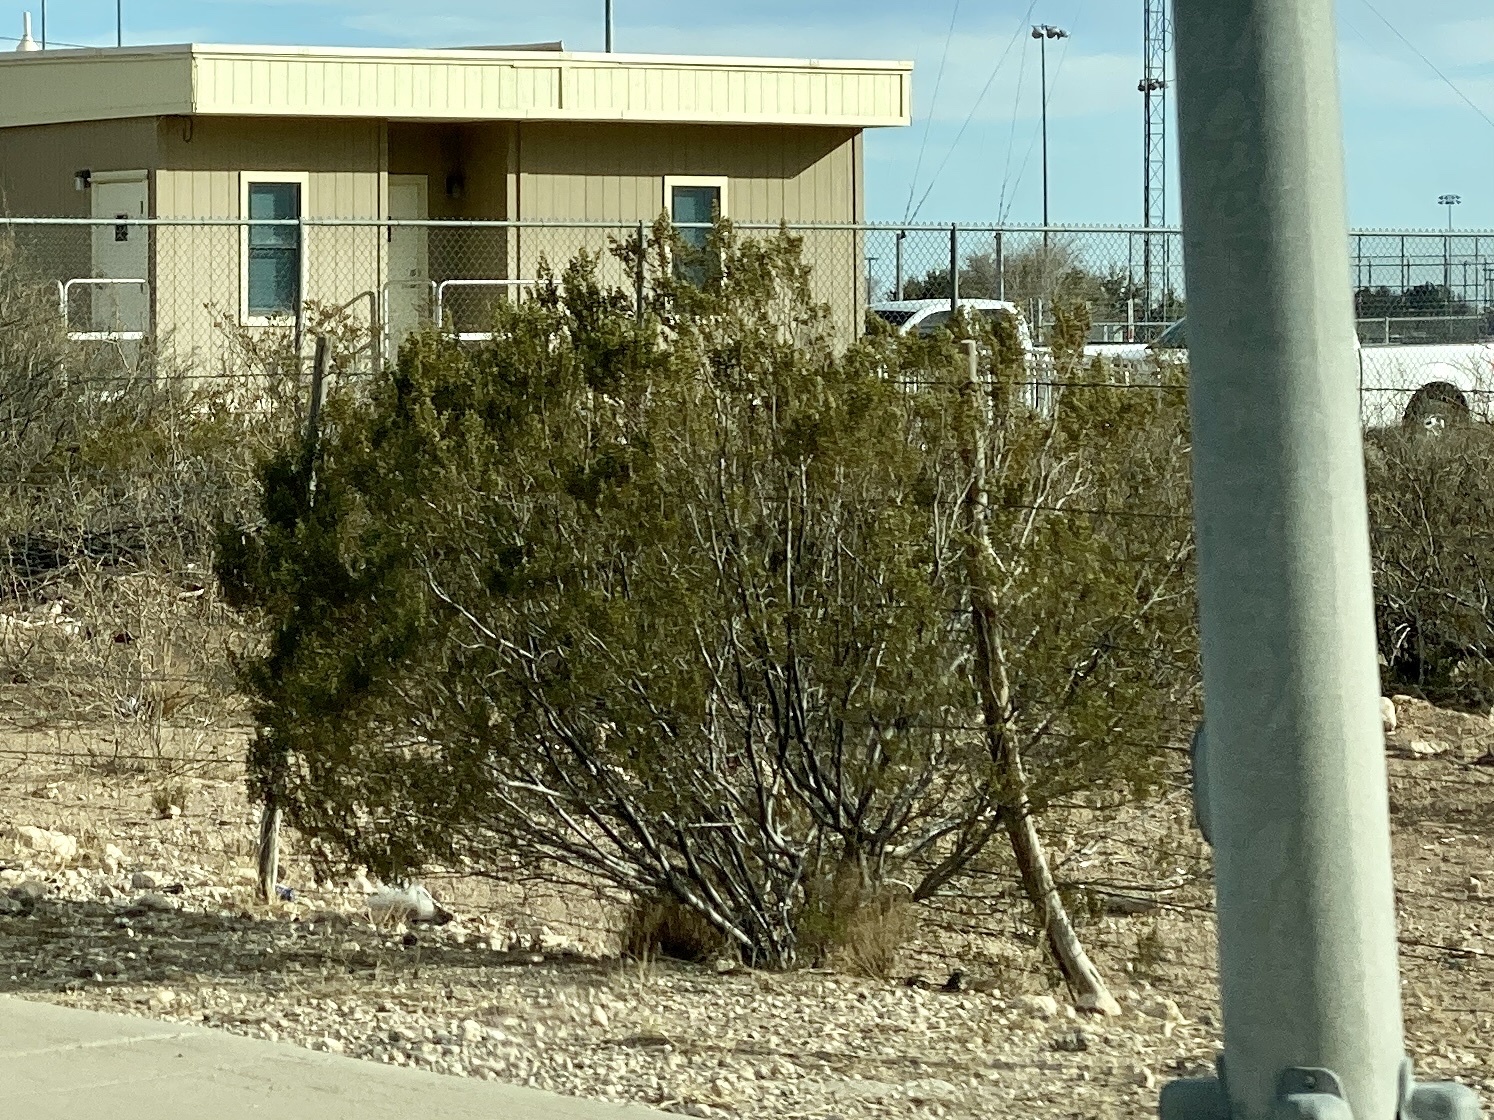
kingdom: Plantae
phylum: Tracheophyta
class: Magnoliopsida
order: Zygophyllales
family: Zygophyllaceae
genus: Larrea
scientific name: Larrea tridentata
